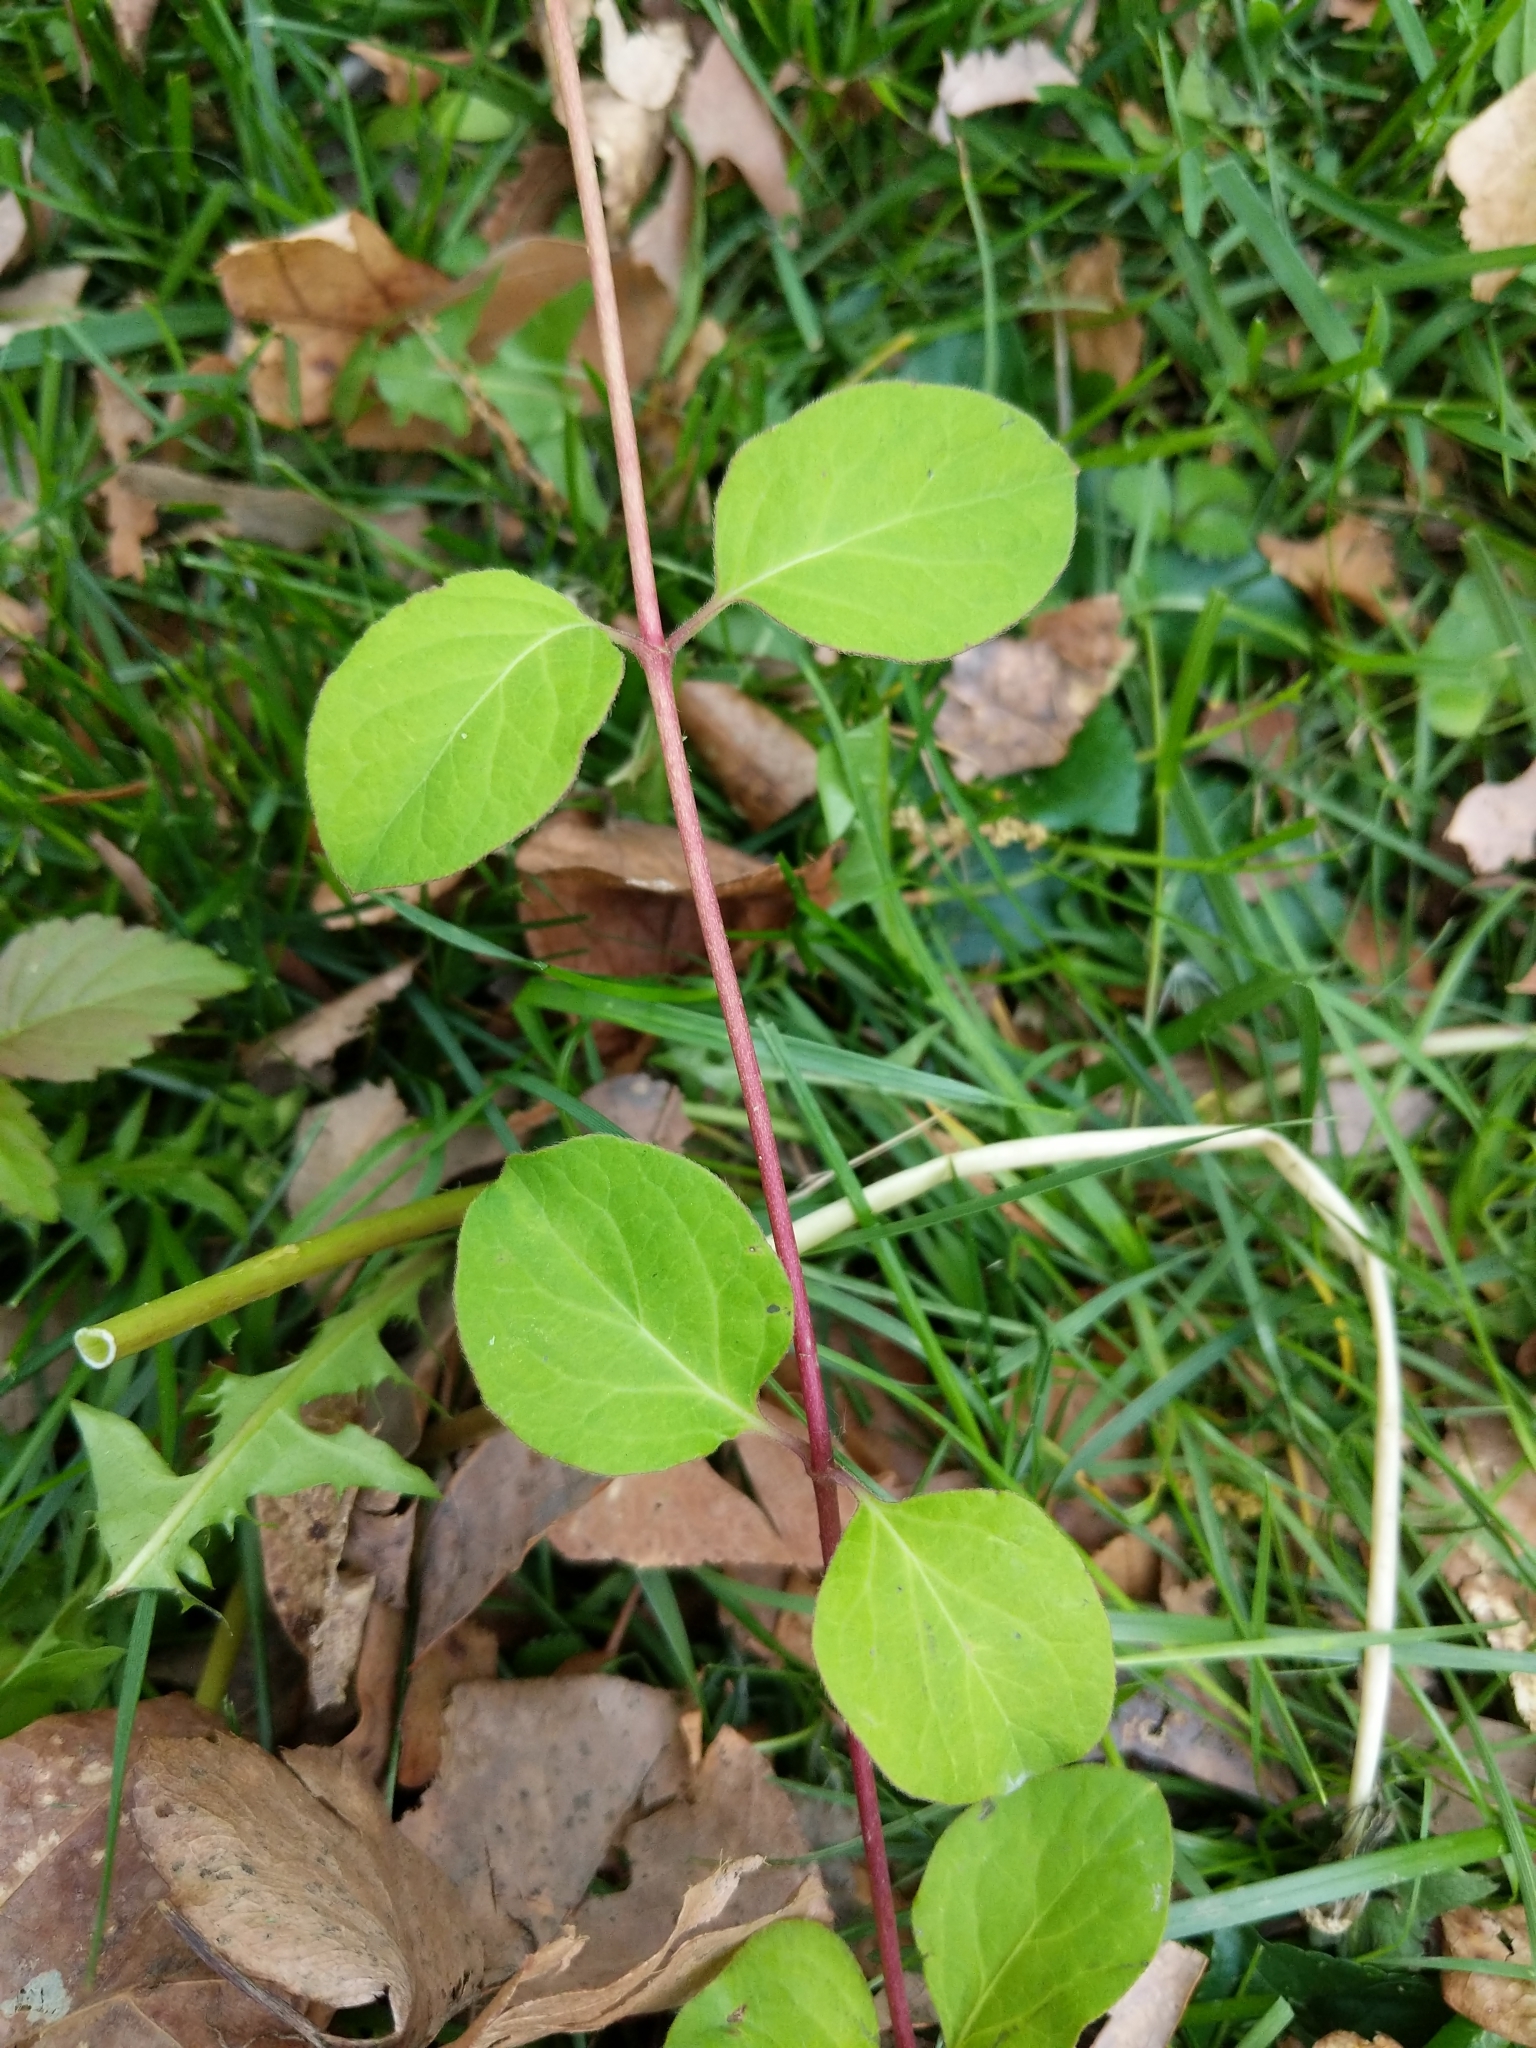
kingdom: Plantae
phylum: Tracheophyta
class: Magnoliopsida
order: Dipsacales
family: Caprifoliaceae
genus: Lonicera
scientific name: Lonicera japonica
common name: Japanese honeysuckle
